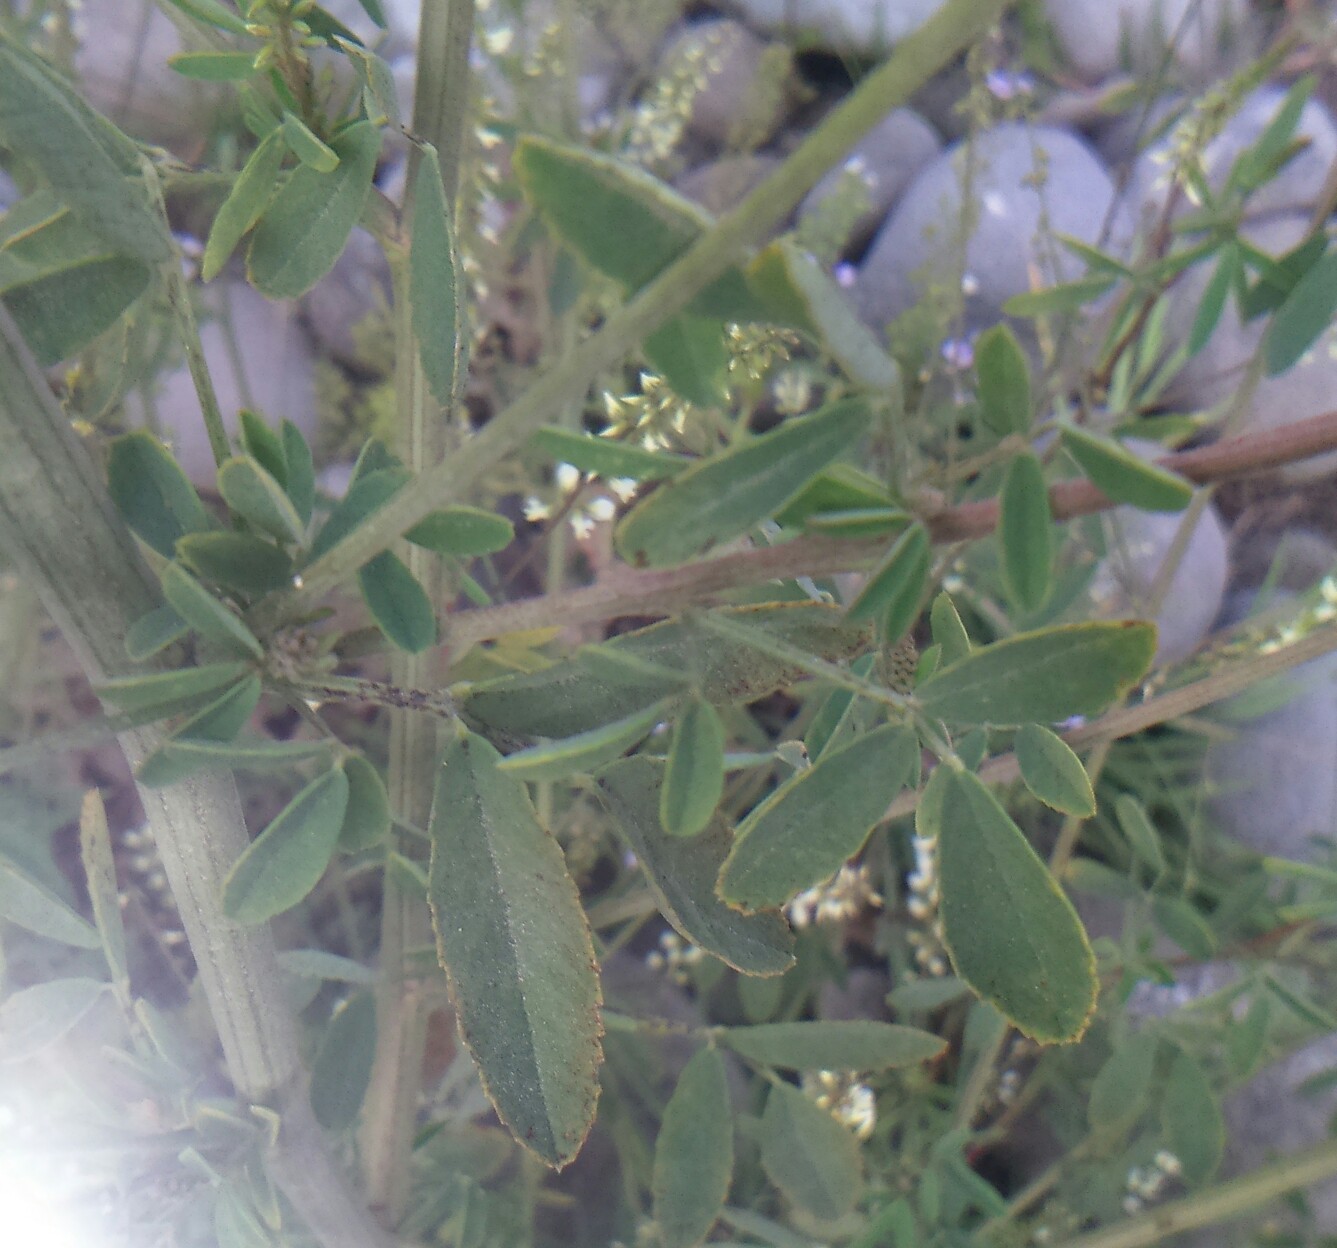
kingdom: Plantae
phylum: Tracheophyta
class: Magnoliopsida
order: Fabales
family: Fabaceae
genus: Melilotus
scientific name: Melilotus albus
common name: White melilot
